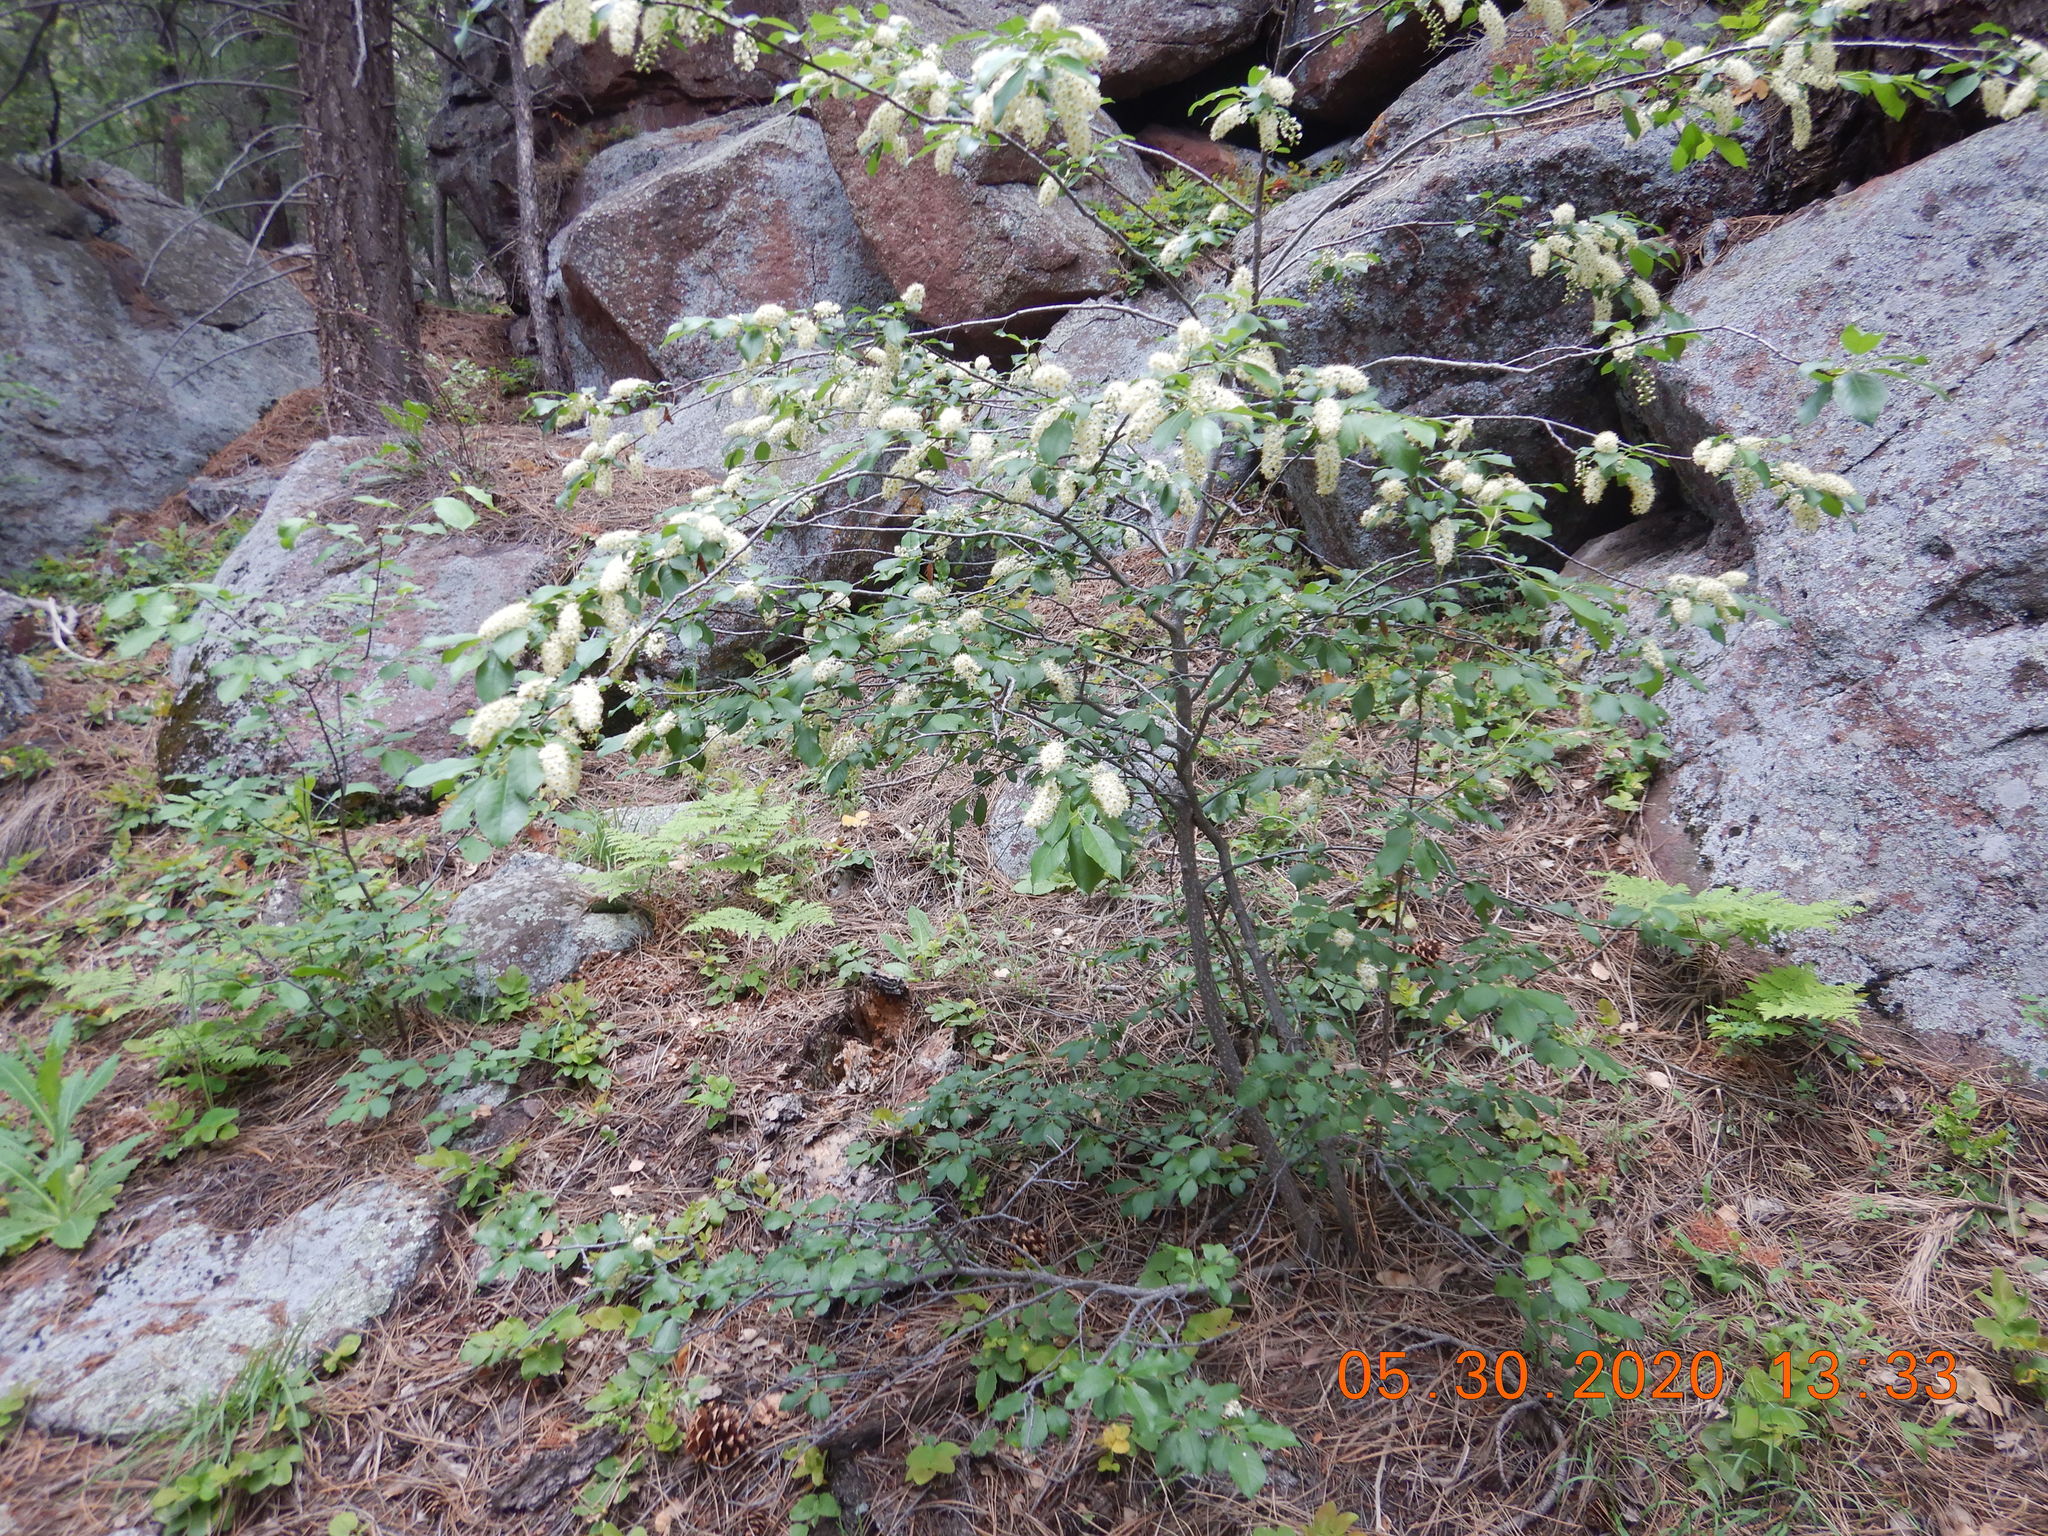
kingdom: Plantae
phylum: Tracheophyta
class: Magnoliopsida
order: Rosales
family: Rosaceae
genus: Prunus
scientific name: Prunus virginiana
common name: Chokecherry
